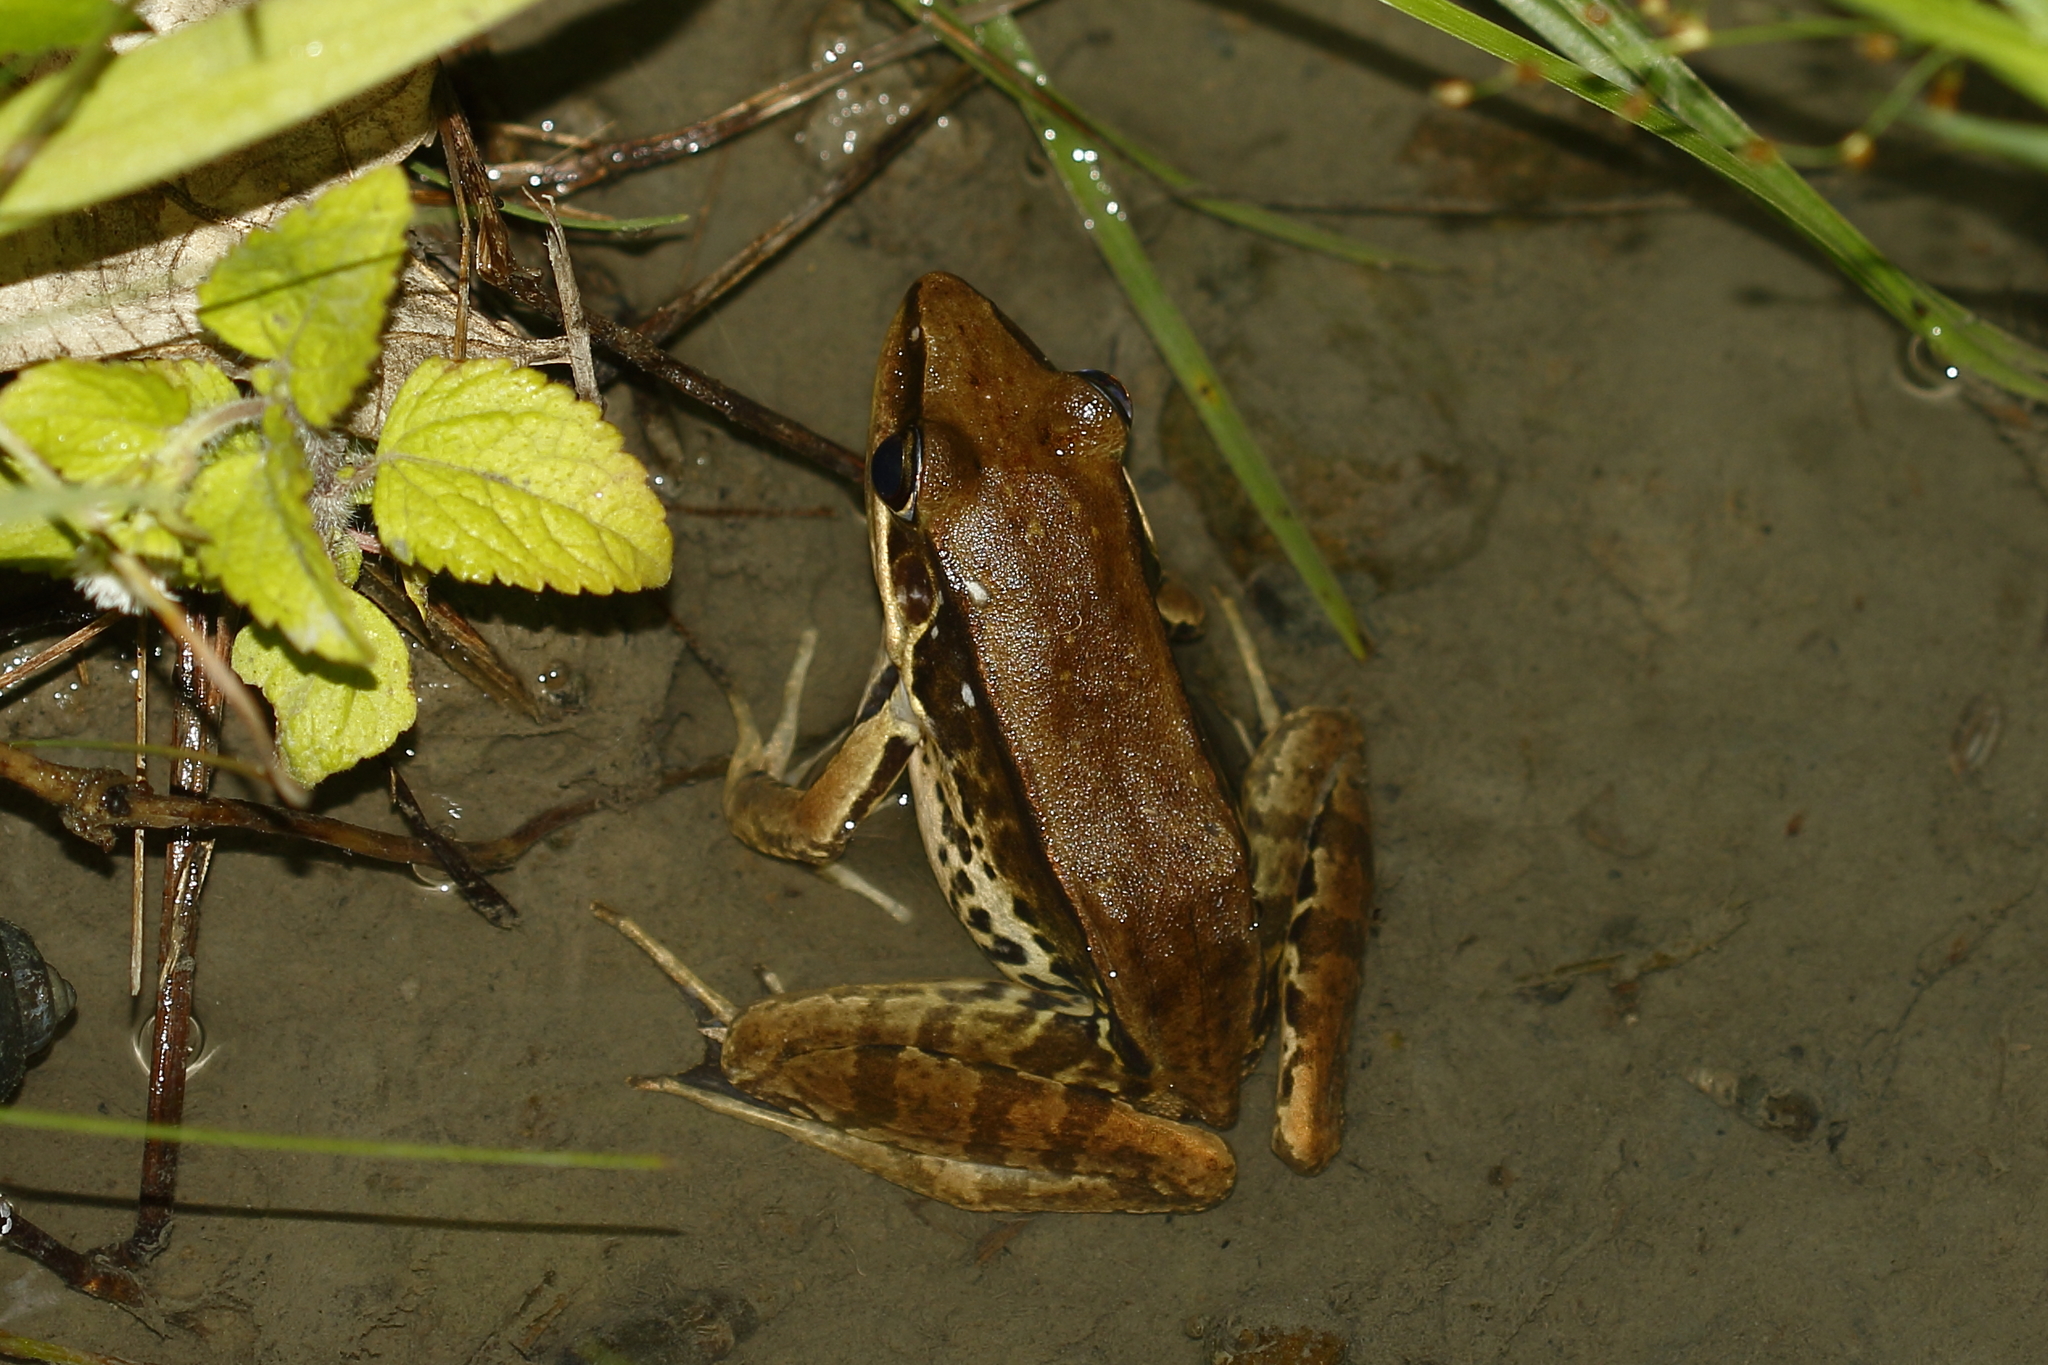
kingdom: Animalia
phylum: Chordata
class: Amphibia
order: Anura
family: Ranidae
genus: Sylvirana
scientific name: Sylvirana guentheri
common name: Guenther's amoy frog
